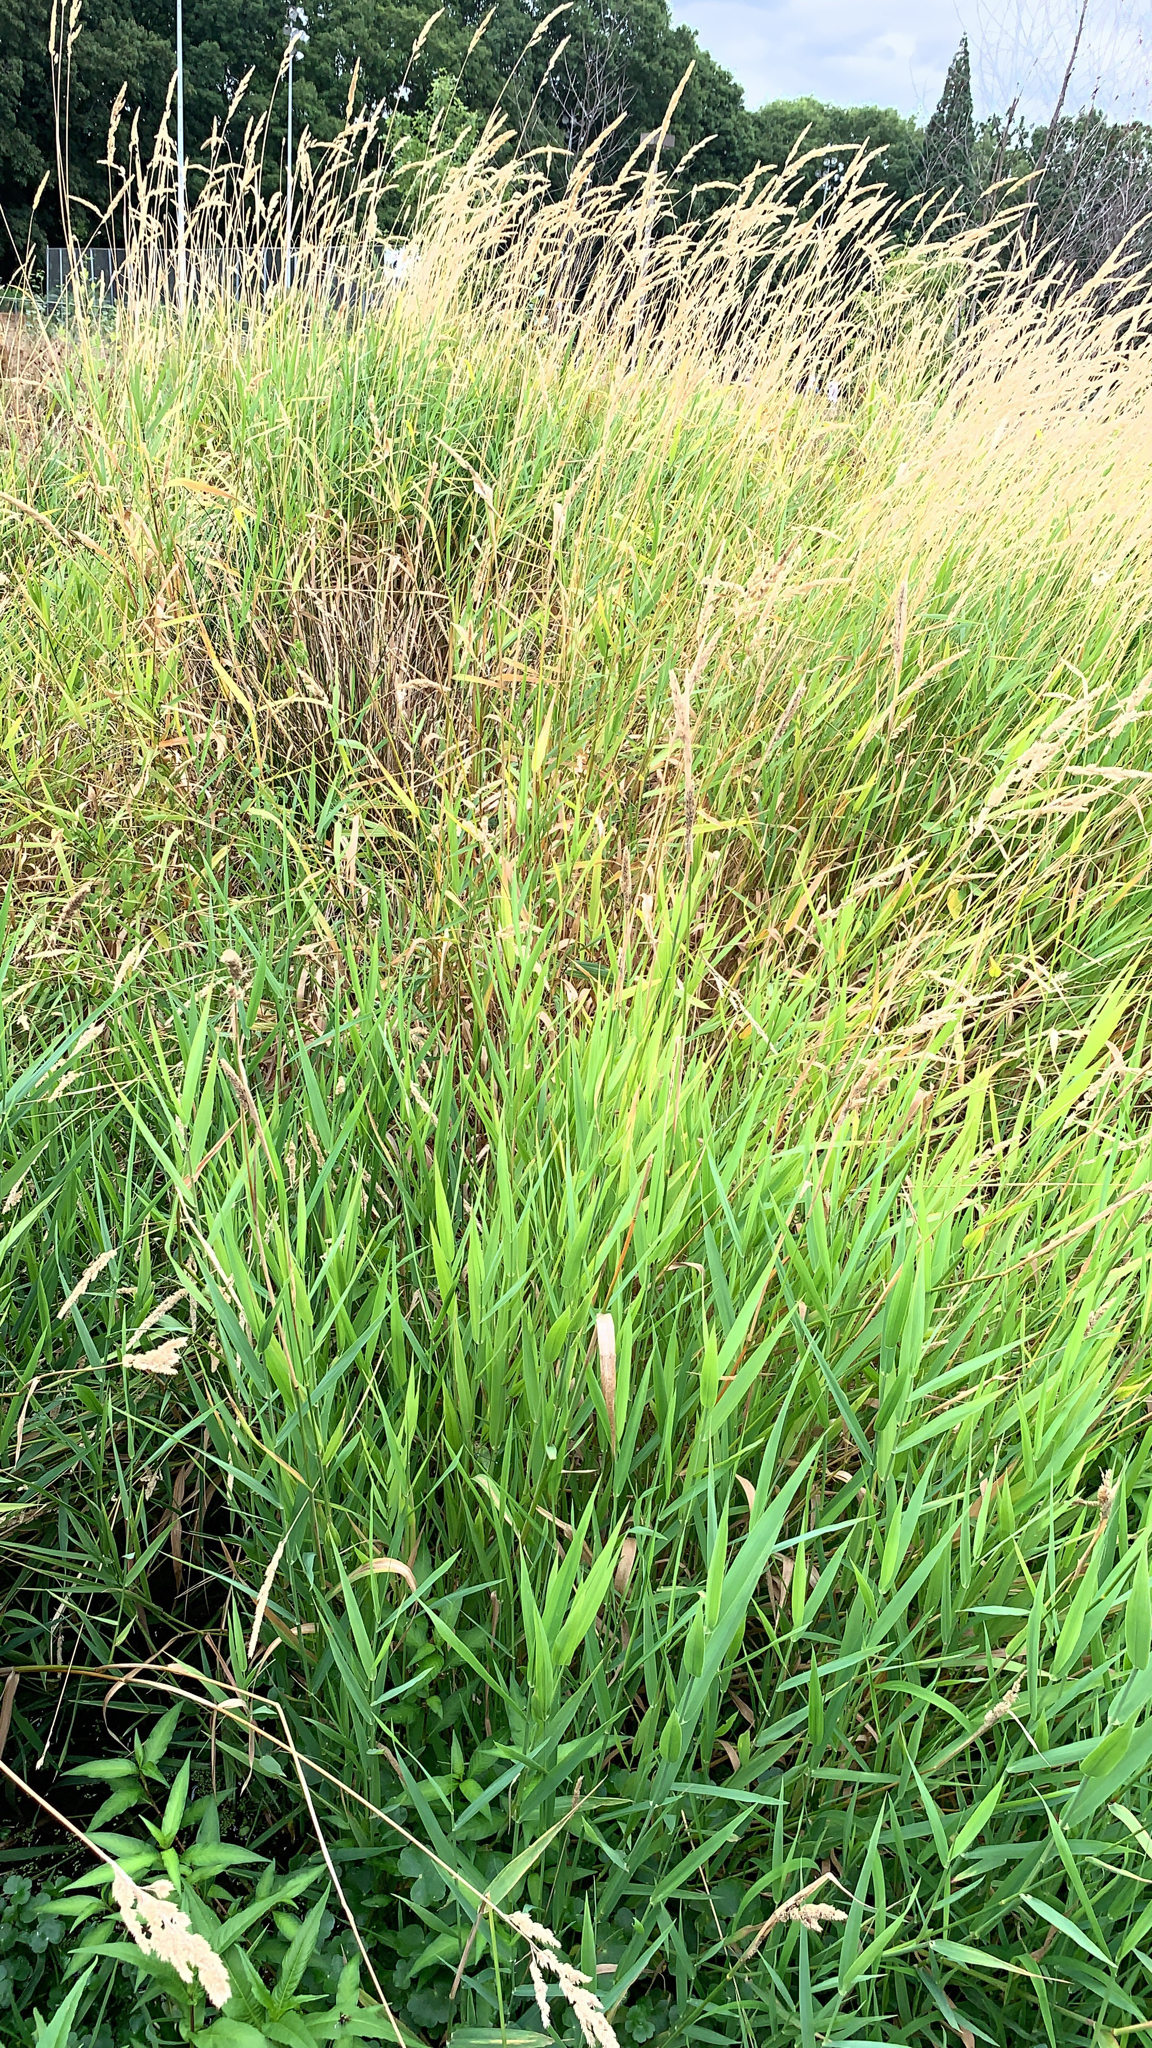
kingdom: Plantae
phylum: Tracheophyta
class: Liliopsida
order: Poales
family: Poaceae
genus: Phalaris
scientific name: Phalaris arundinacea
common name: Reed canary-grass
